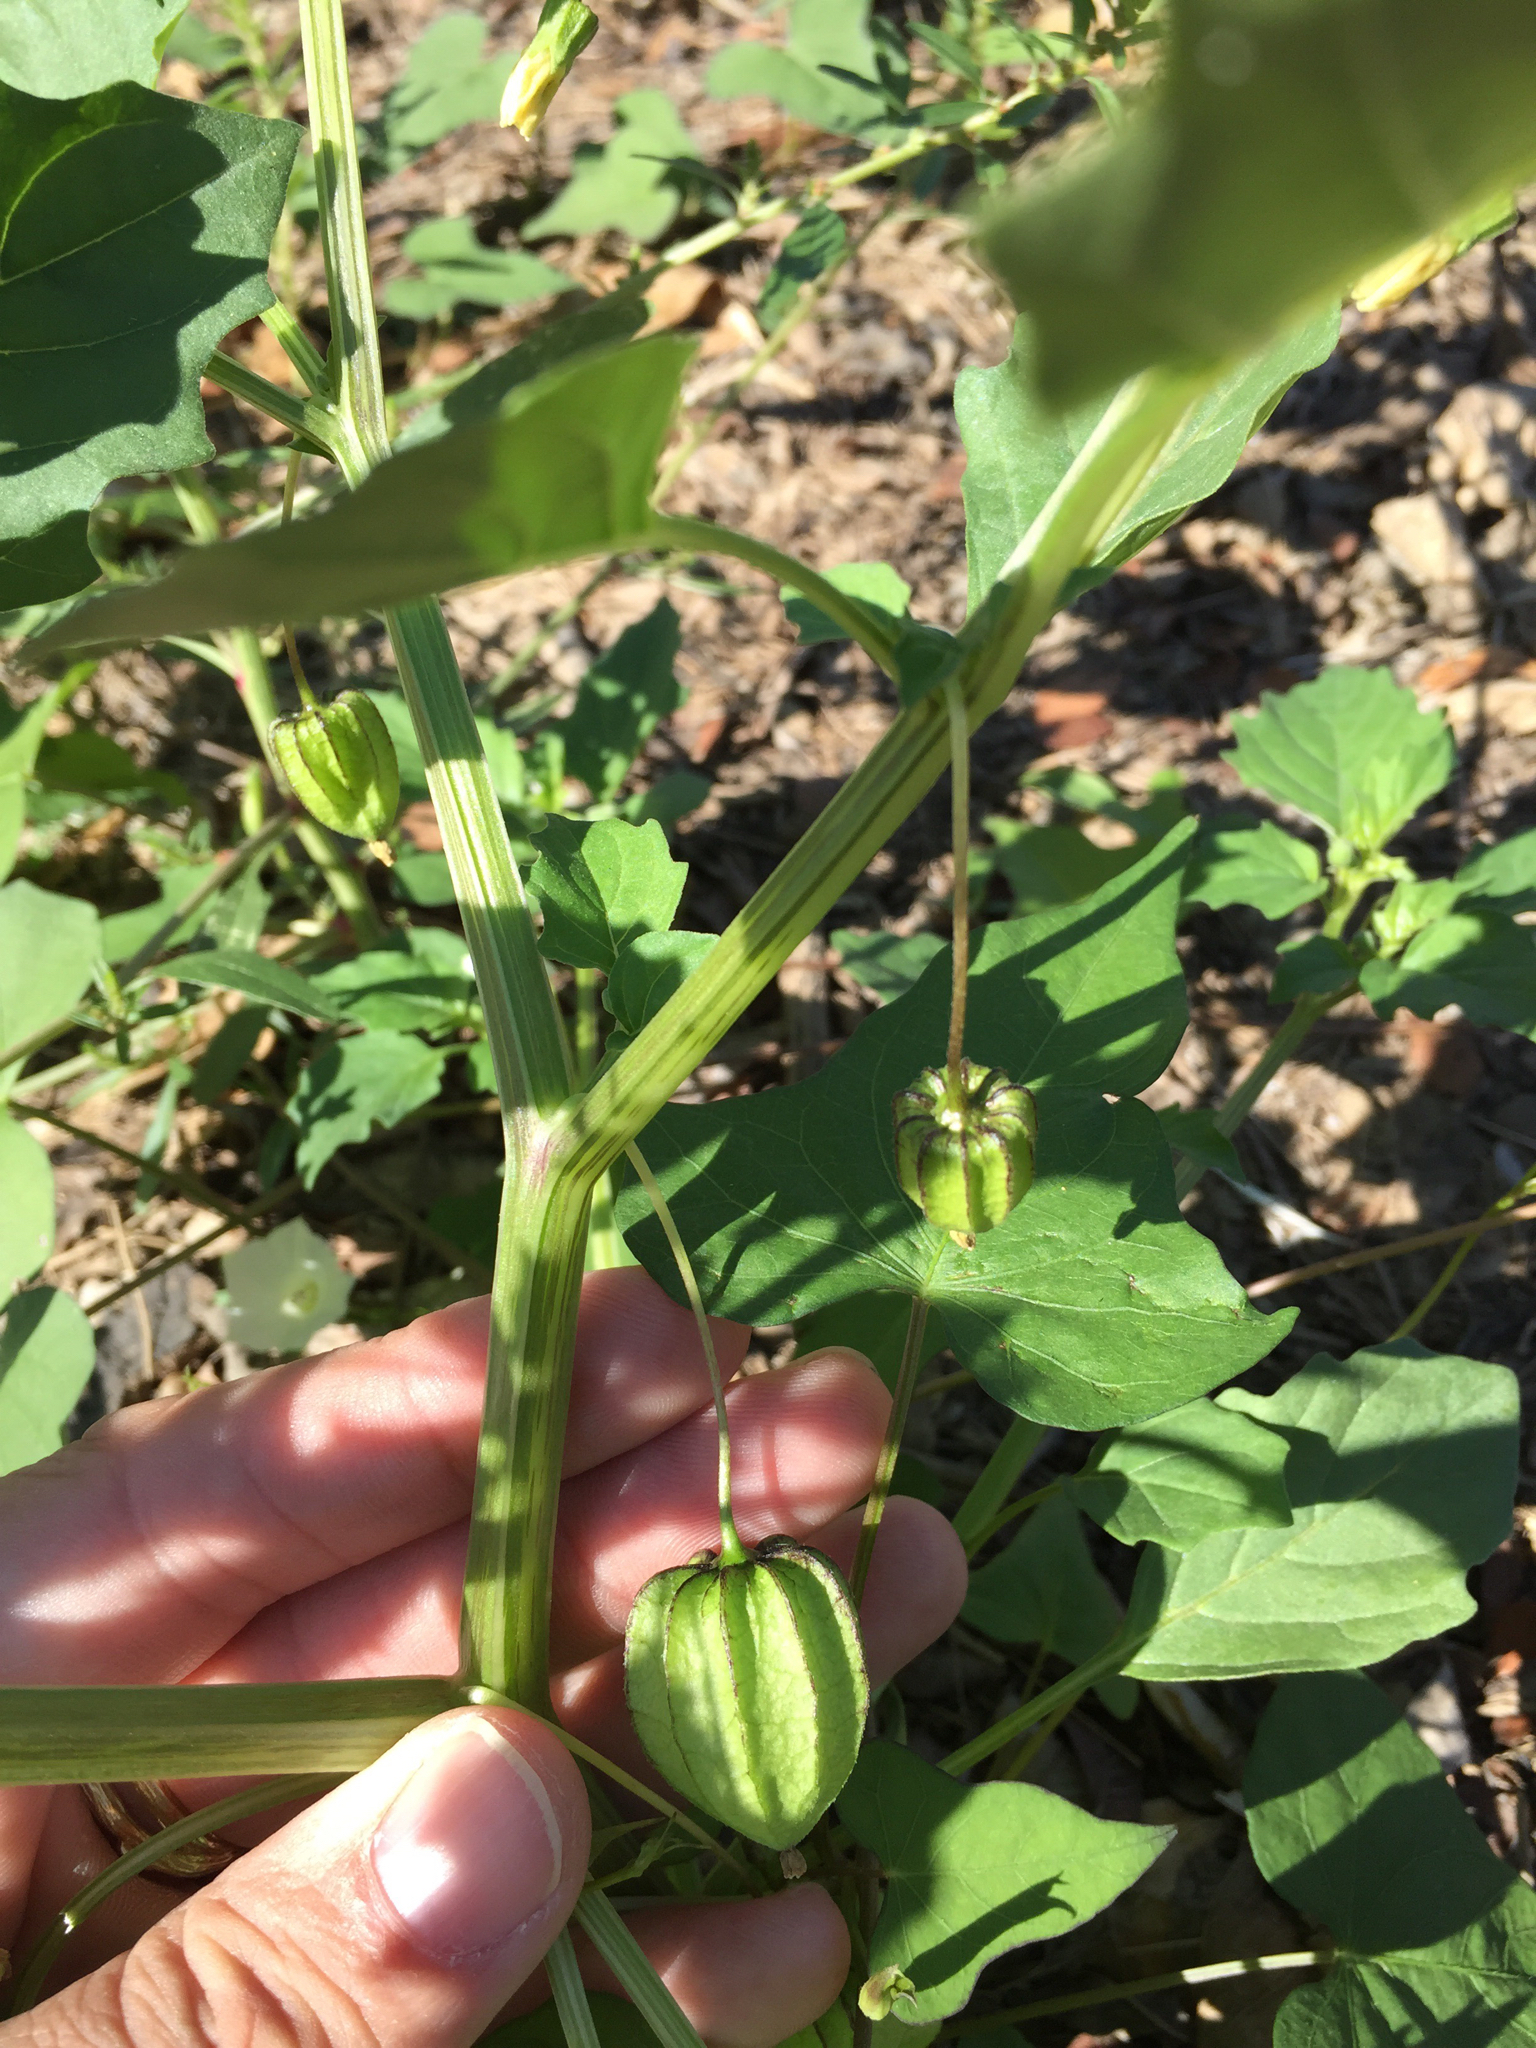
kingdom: Plantae
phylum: Tracheophyta
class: Magnoliopsida
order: Solanales
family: Solanaceae
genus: Physalis
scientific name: Physalis angulata
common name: Angular winter-cherry
